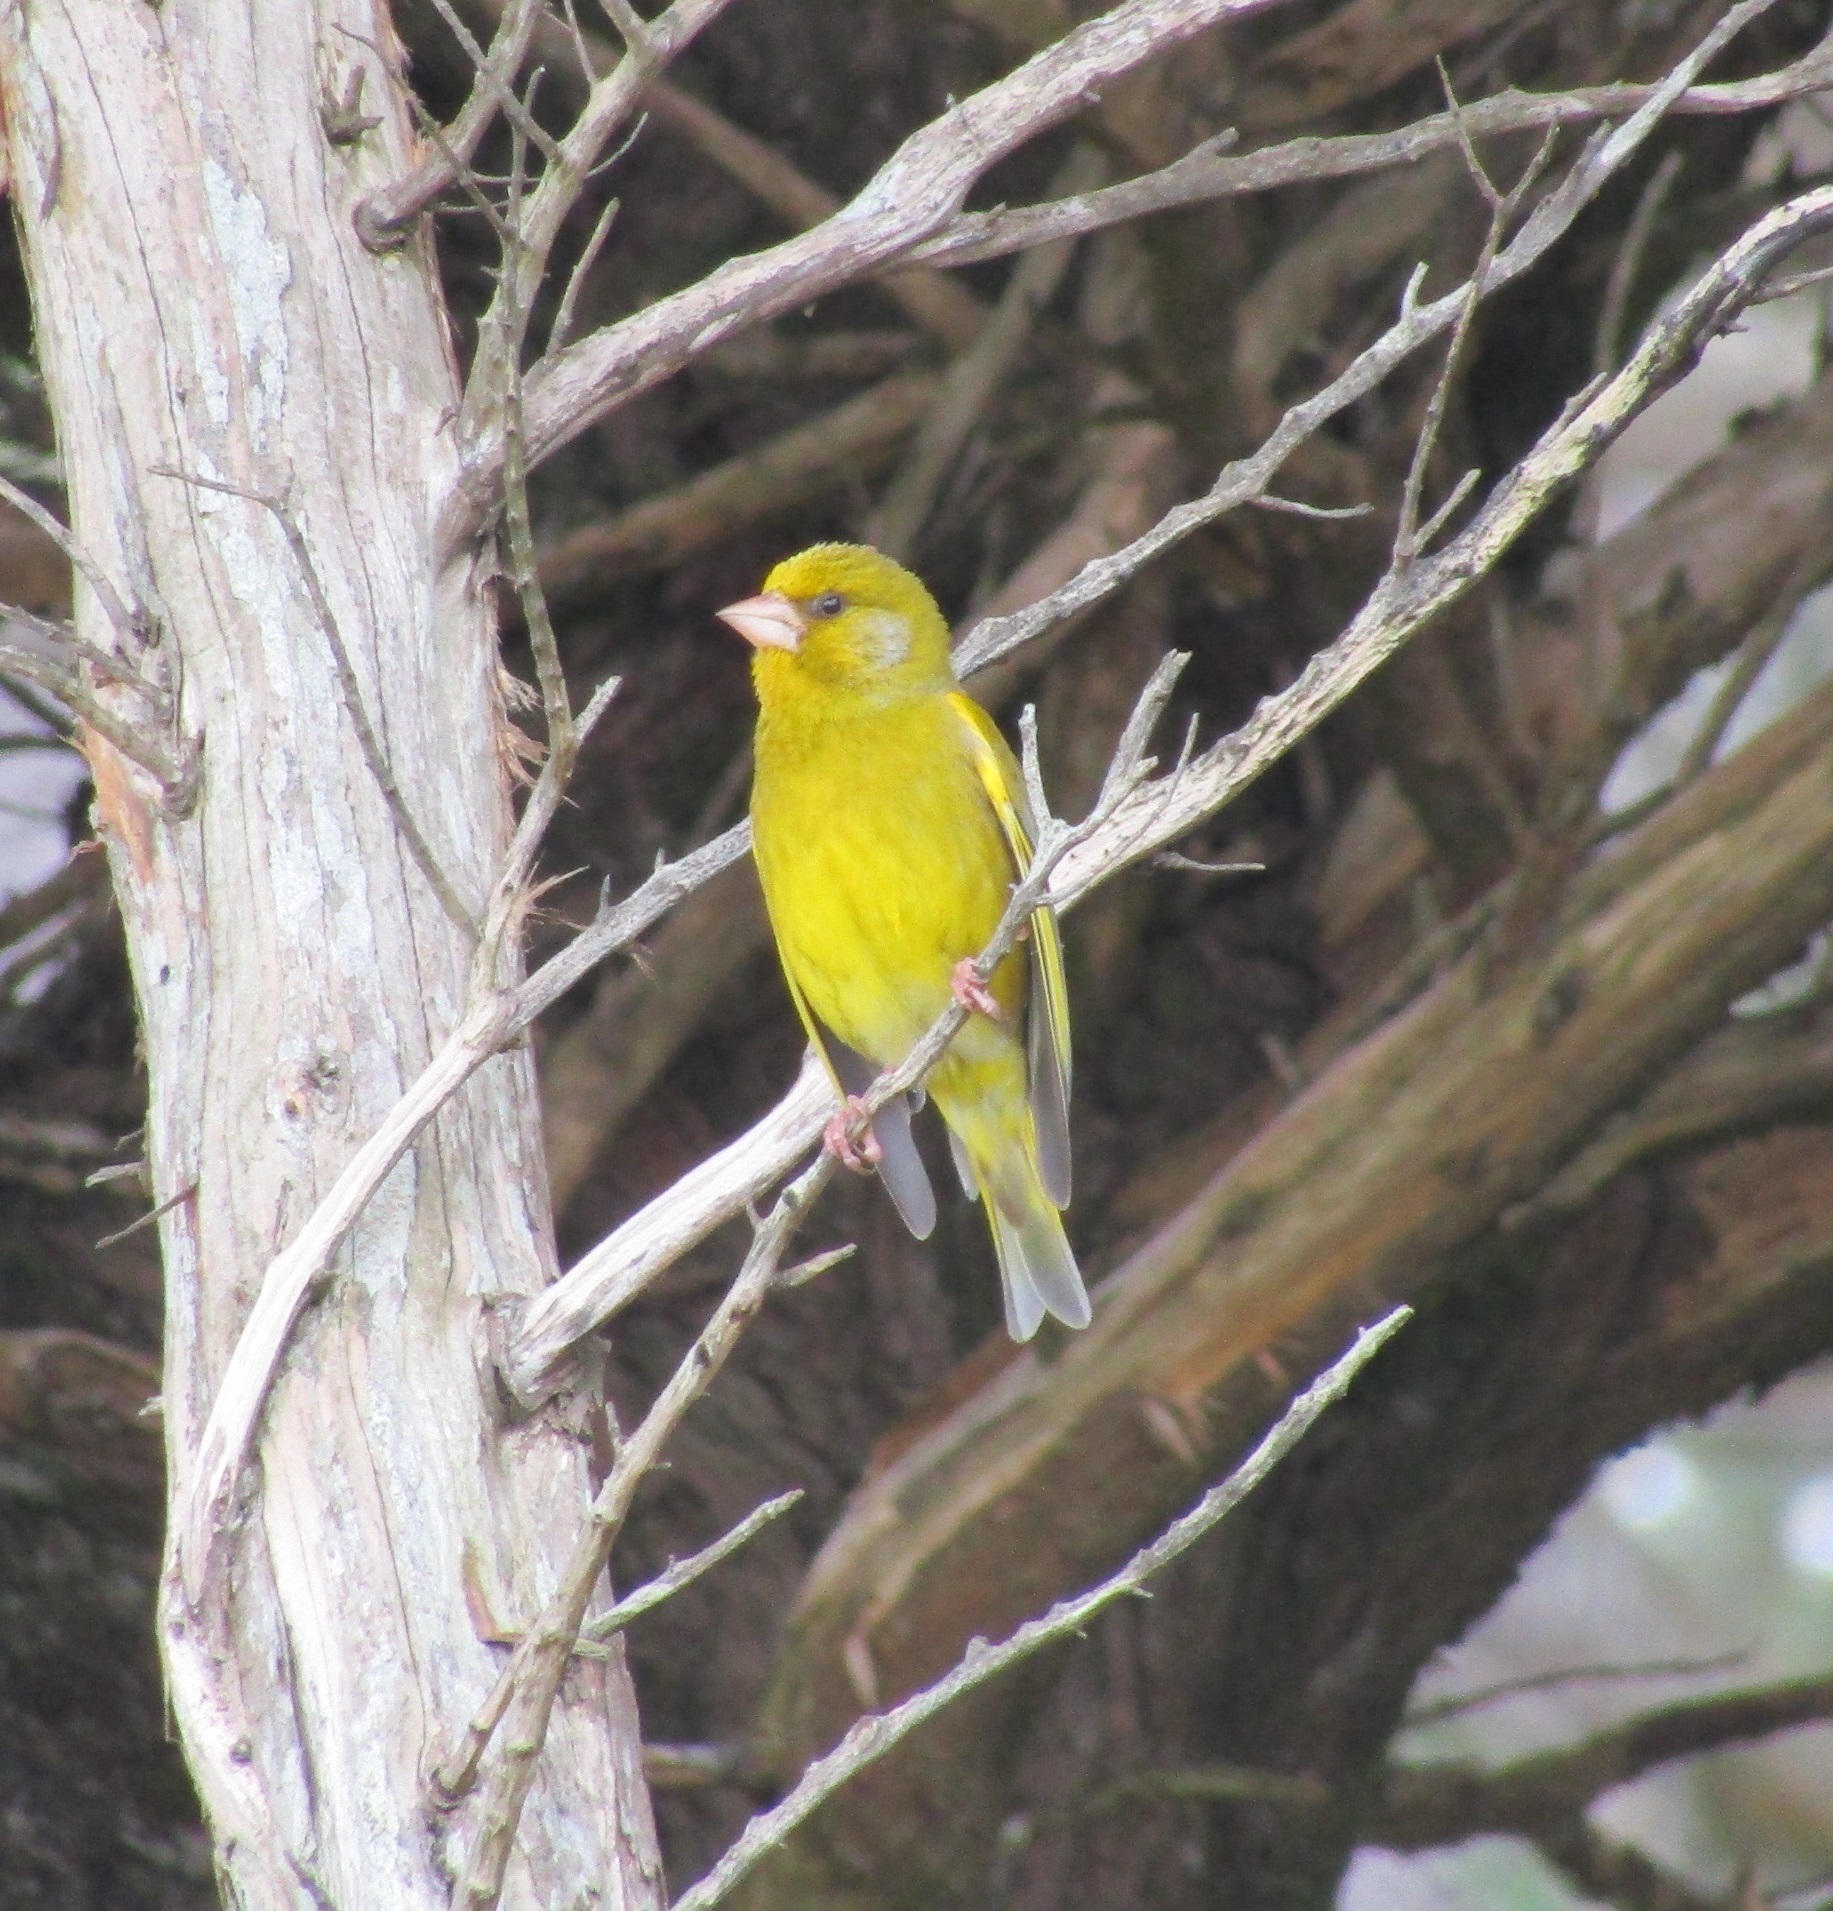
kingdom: Plantae
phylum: Tracheophyta
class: Liliopsida
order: Poales
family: Poaceae
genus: Chloris
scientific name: Chloris chloris
